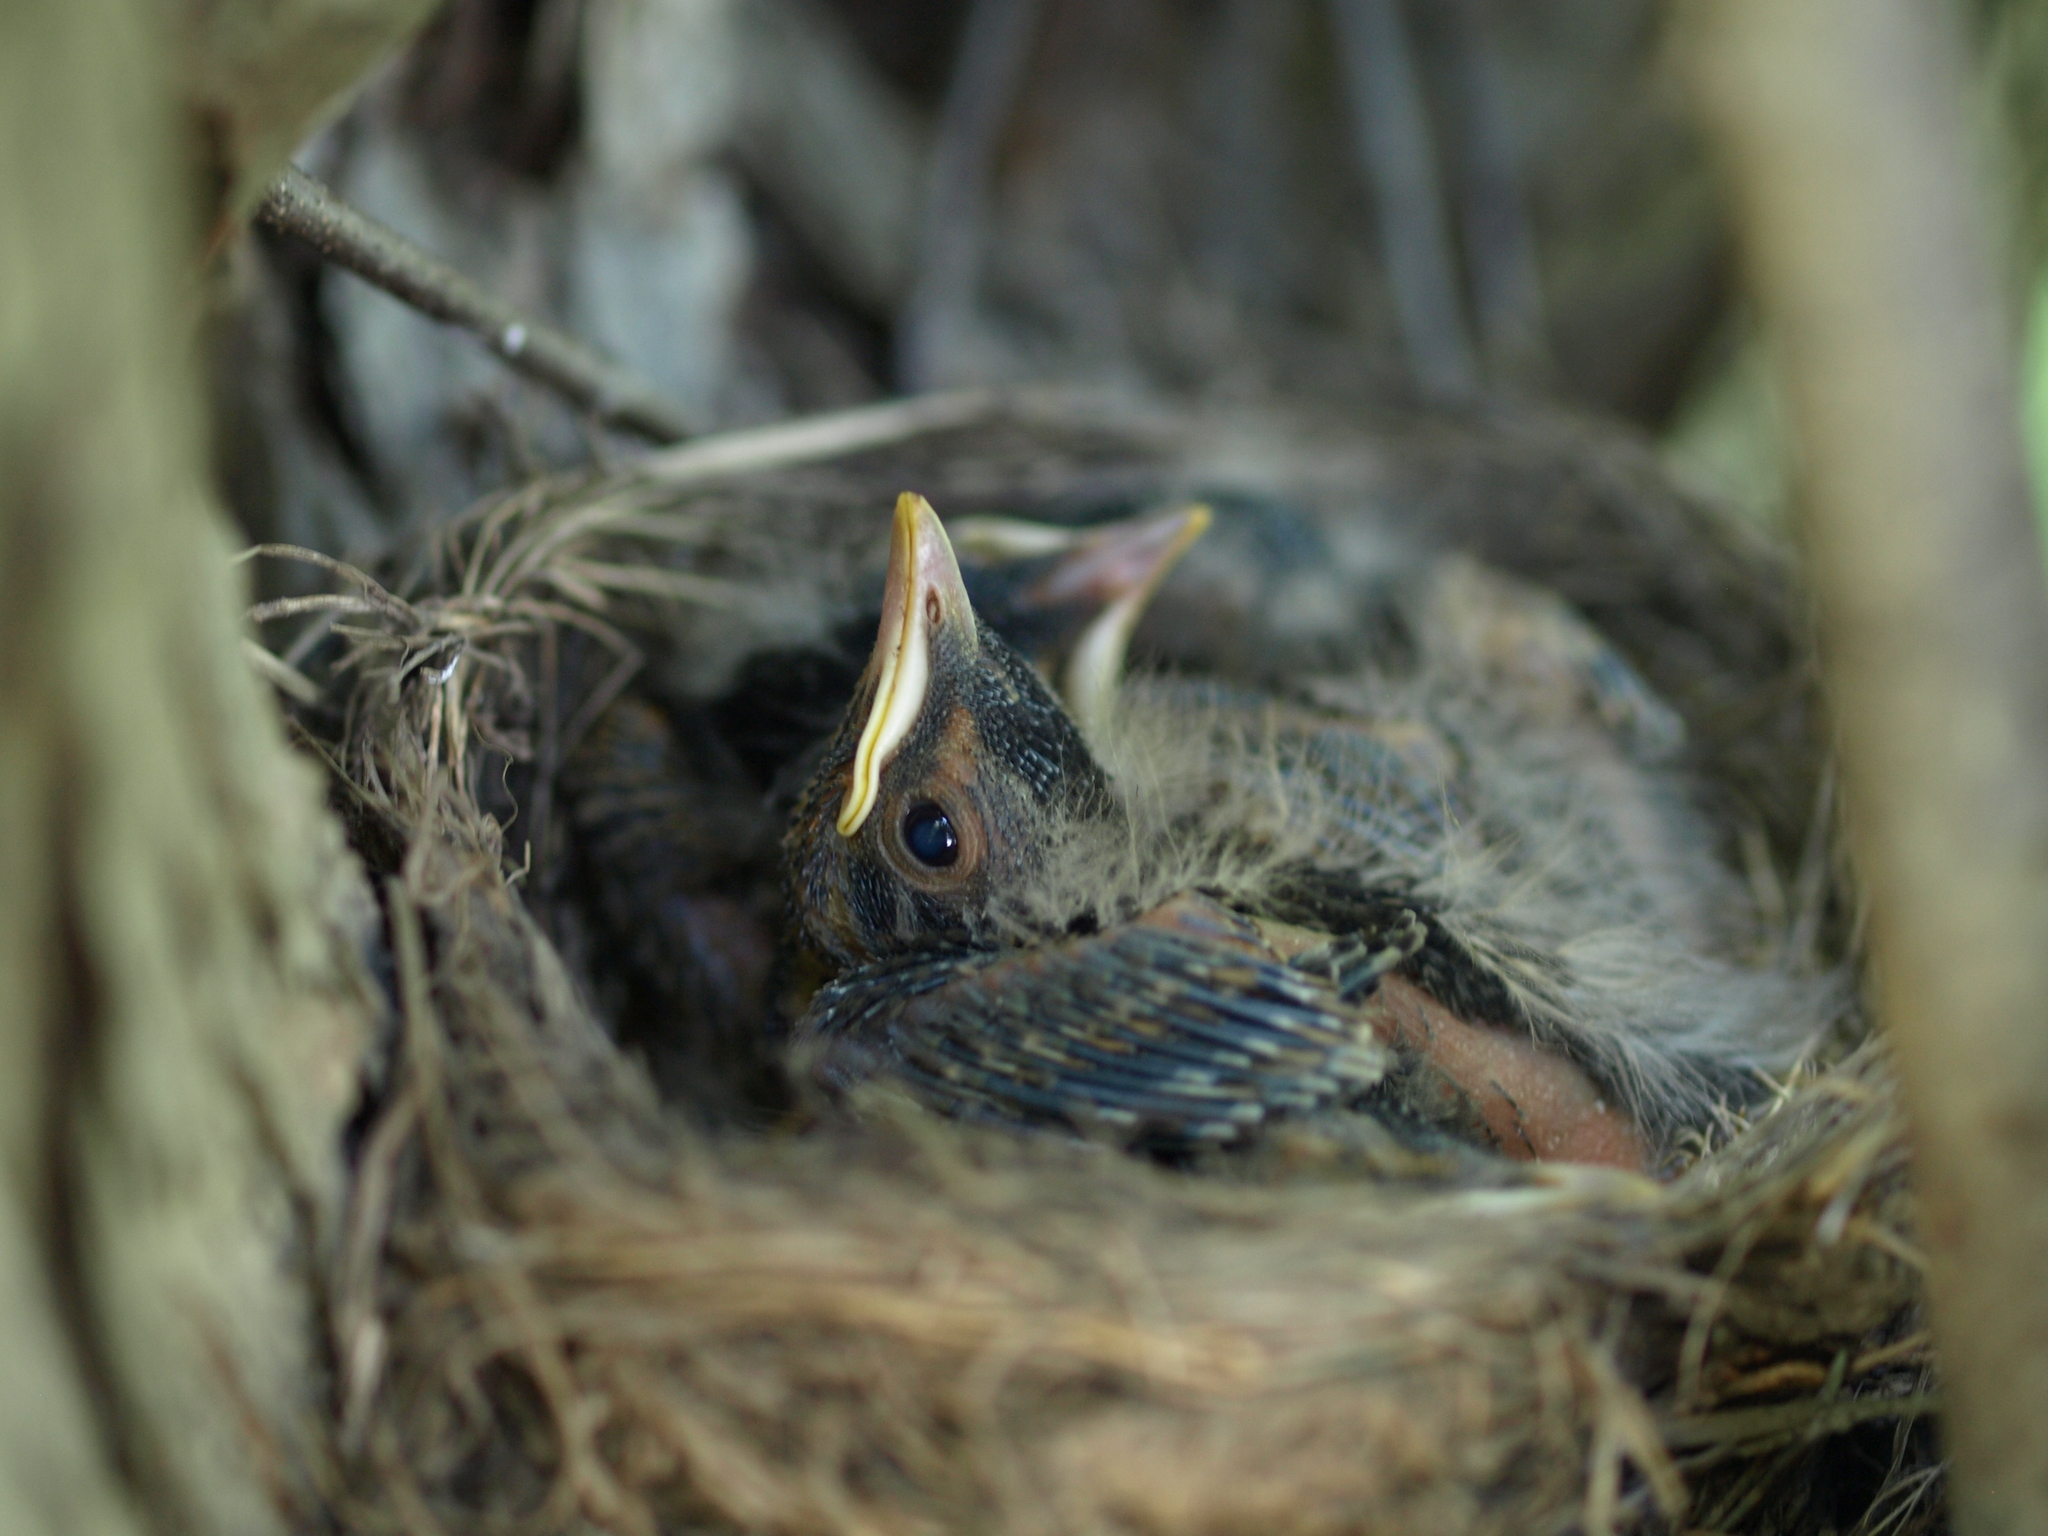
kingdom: Animalia
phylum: Chordata
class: Aves
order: Passeriformes
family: Turdidae
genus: Turdus
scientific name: Turdus migratorius
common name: American robin
